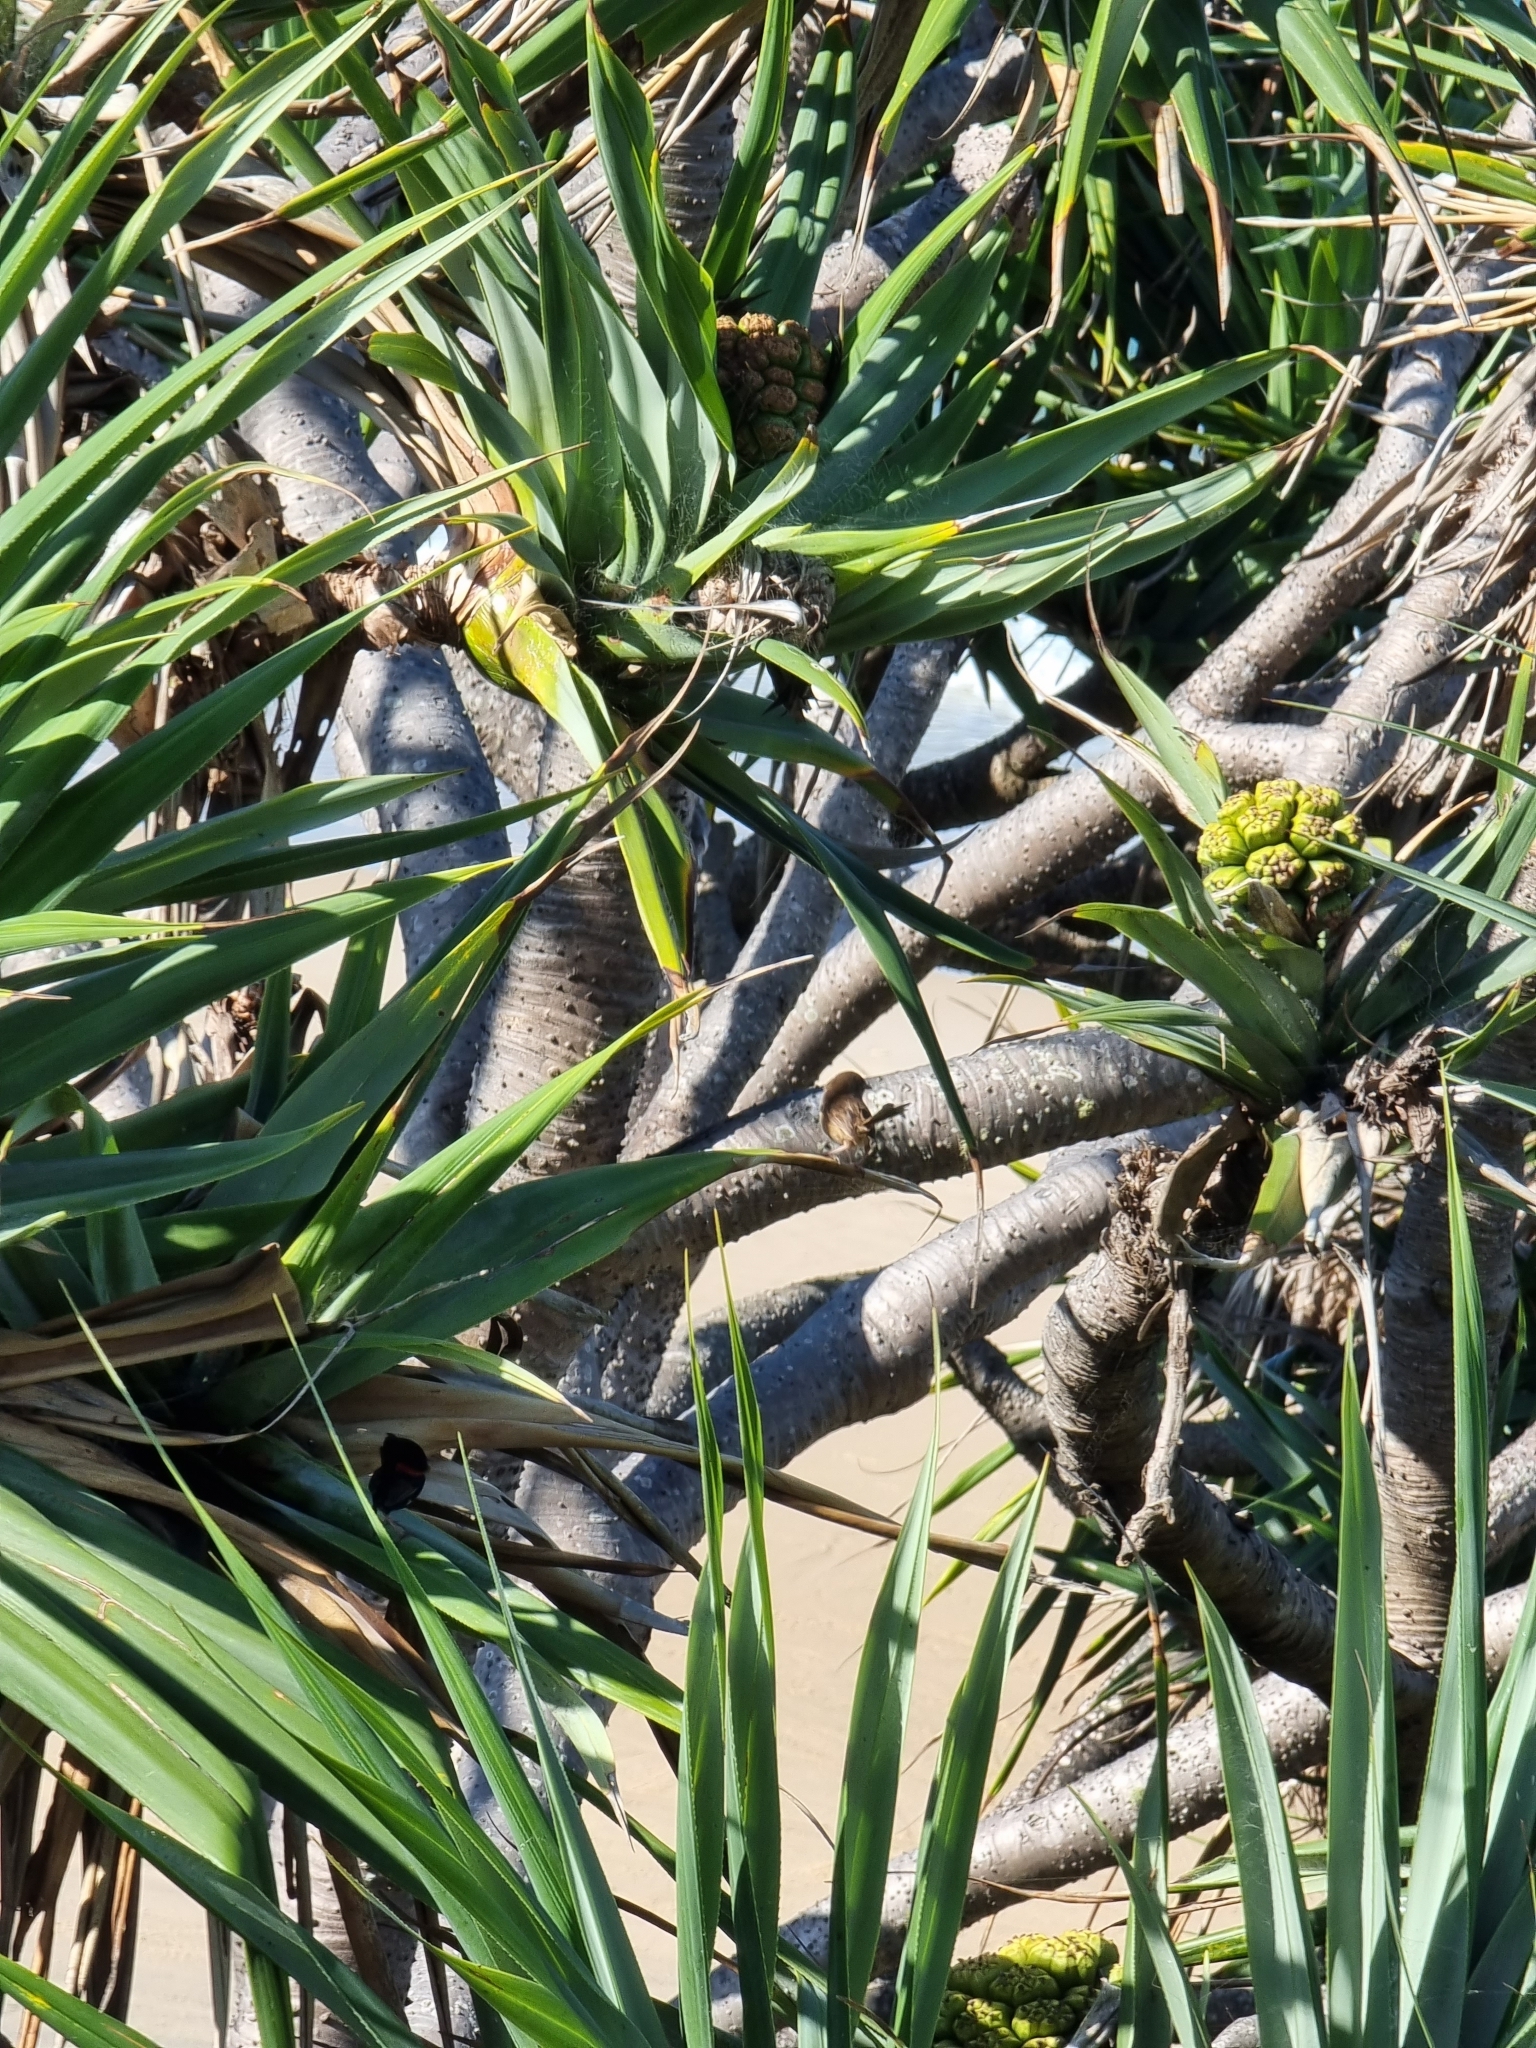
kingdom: Animalia
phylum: Chordata
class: Aves
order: Passeriformes
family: Maluridae
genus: Malurus
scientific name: Malurus melanocephalus
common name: Red-backed fairywren
